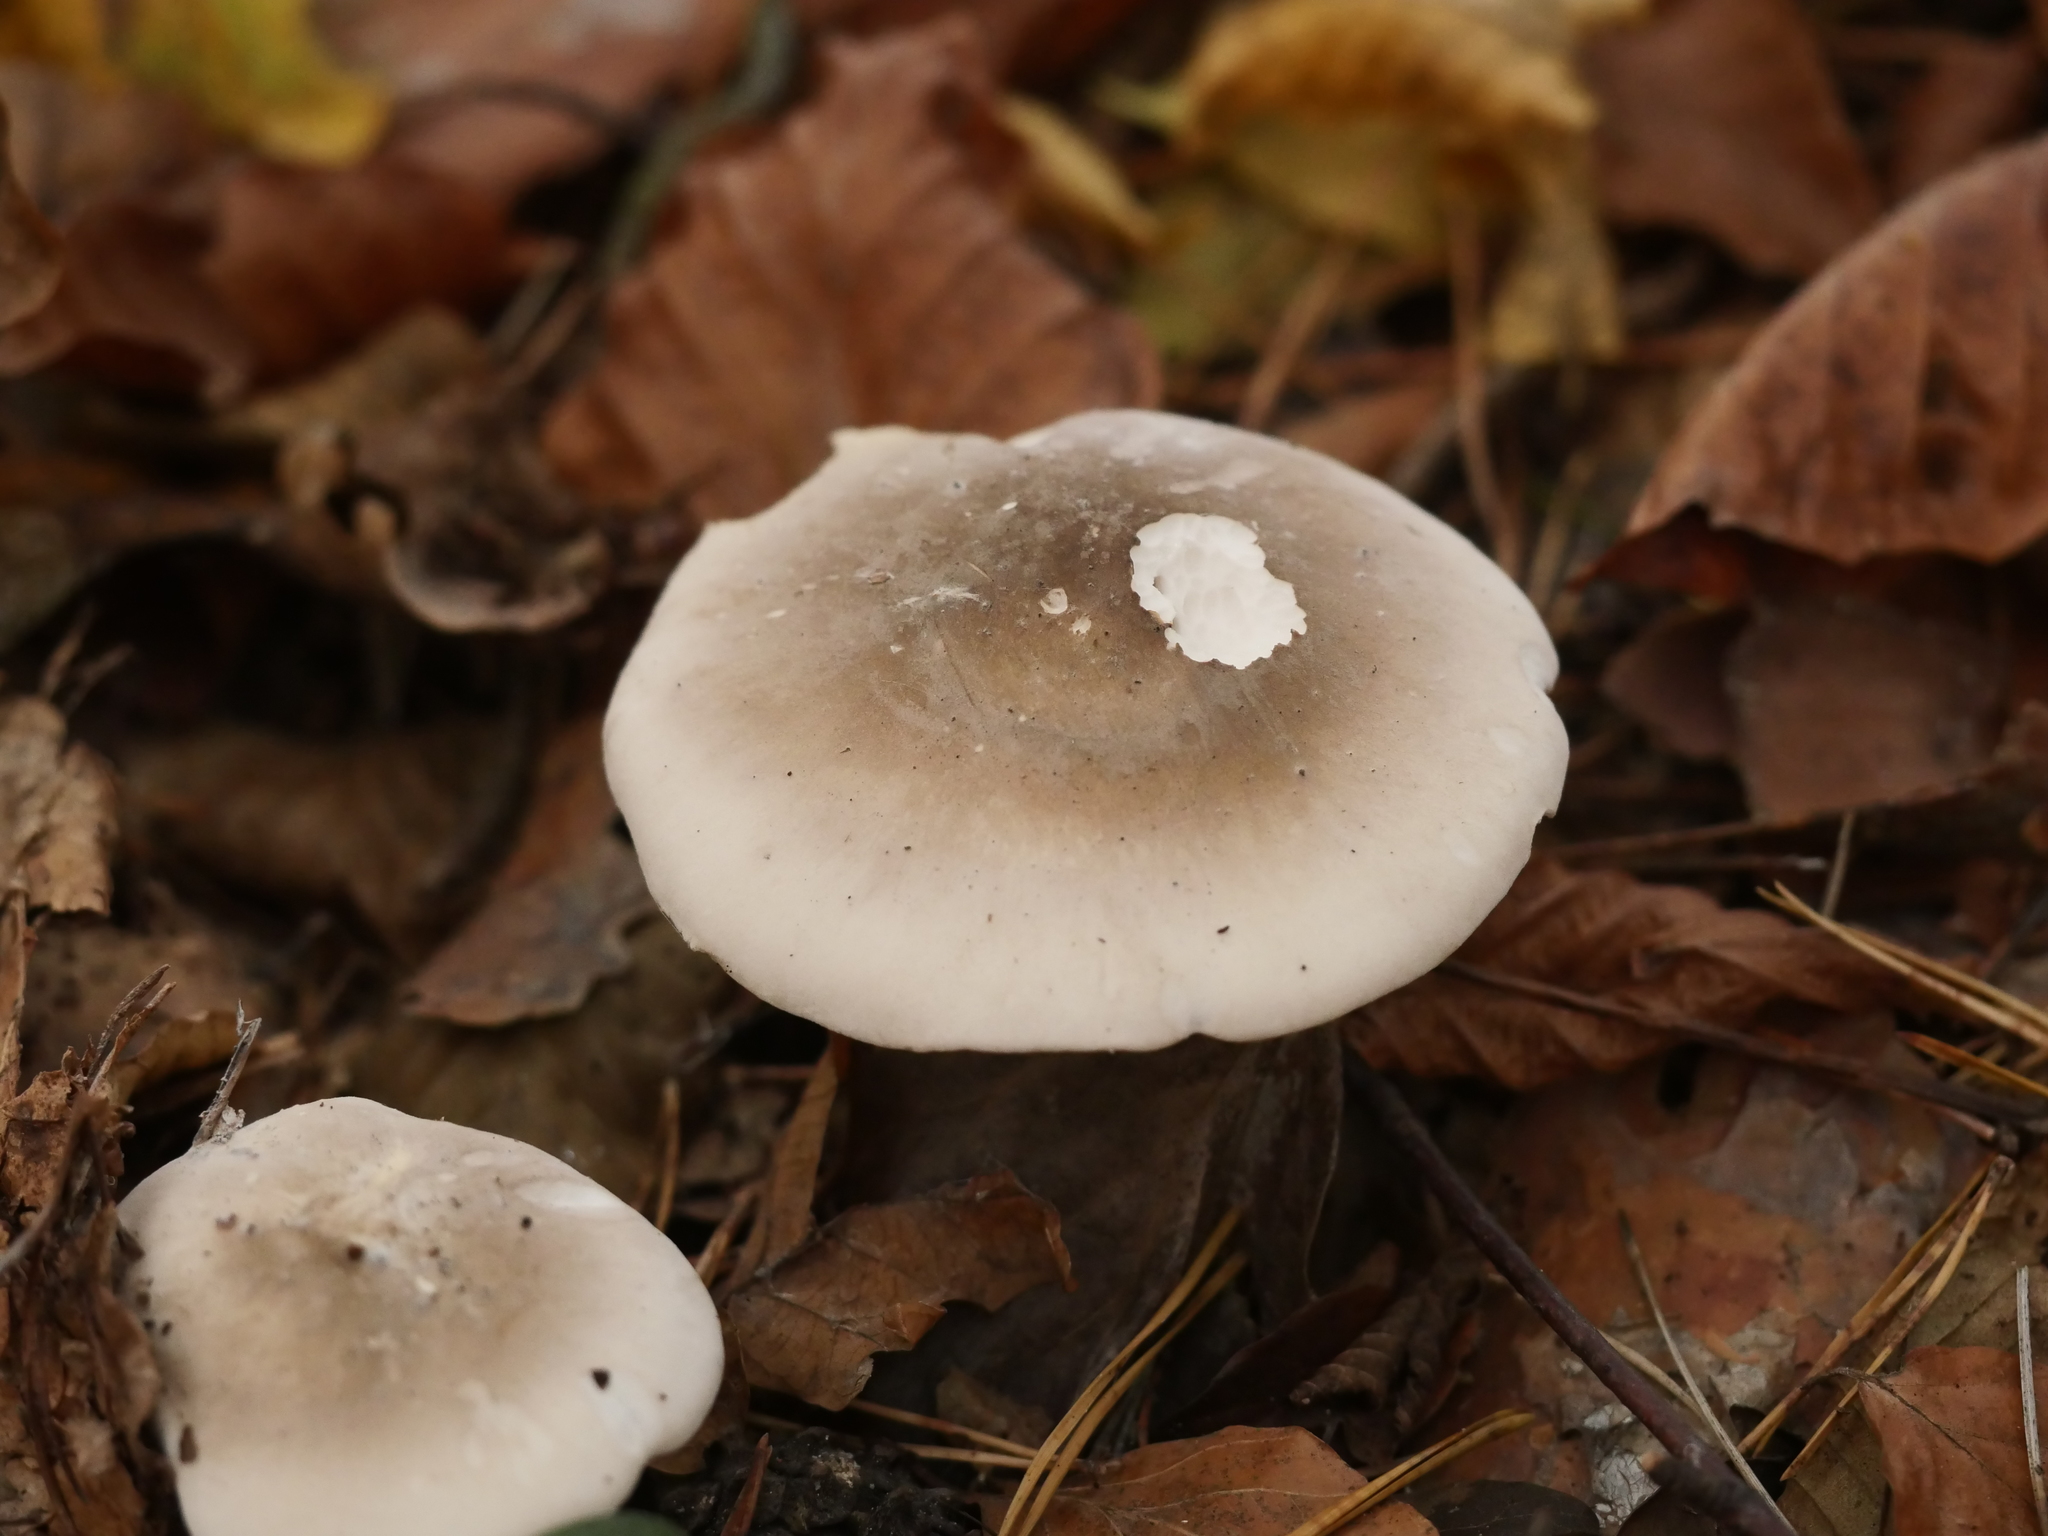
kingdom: Fungi
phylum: Basidiomycota
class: Agaricomycetes
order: Agaricales
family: Tricholomataceae
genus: Clitocybe
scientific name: Clitocybe nebularis
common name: Clouded agaric
